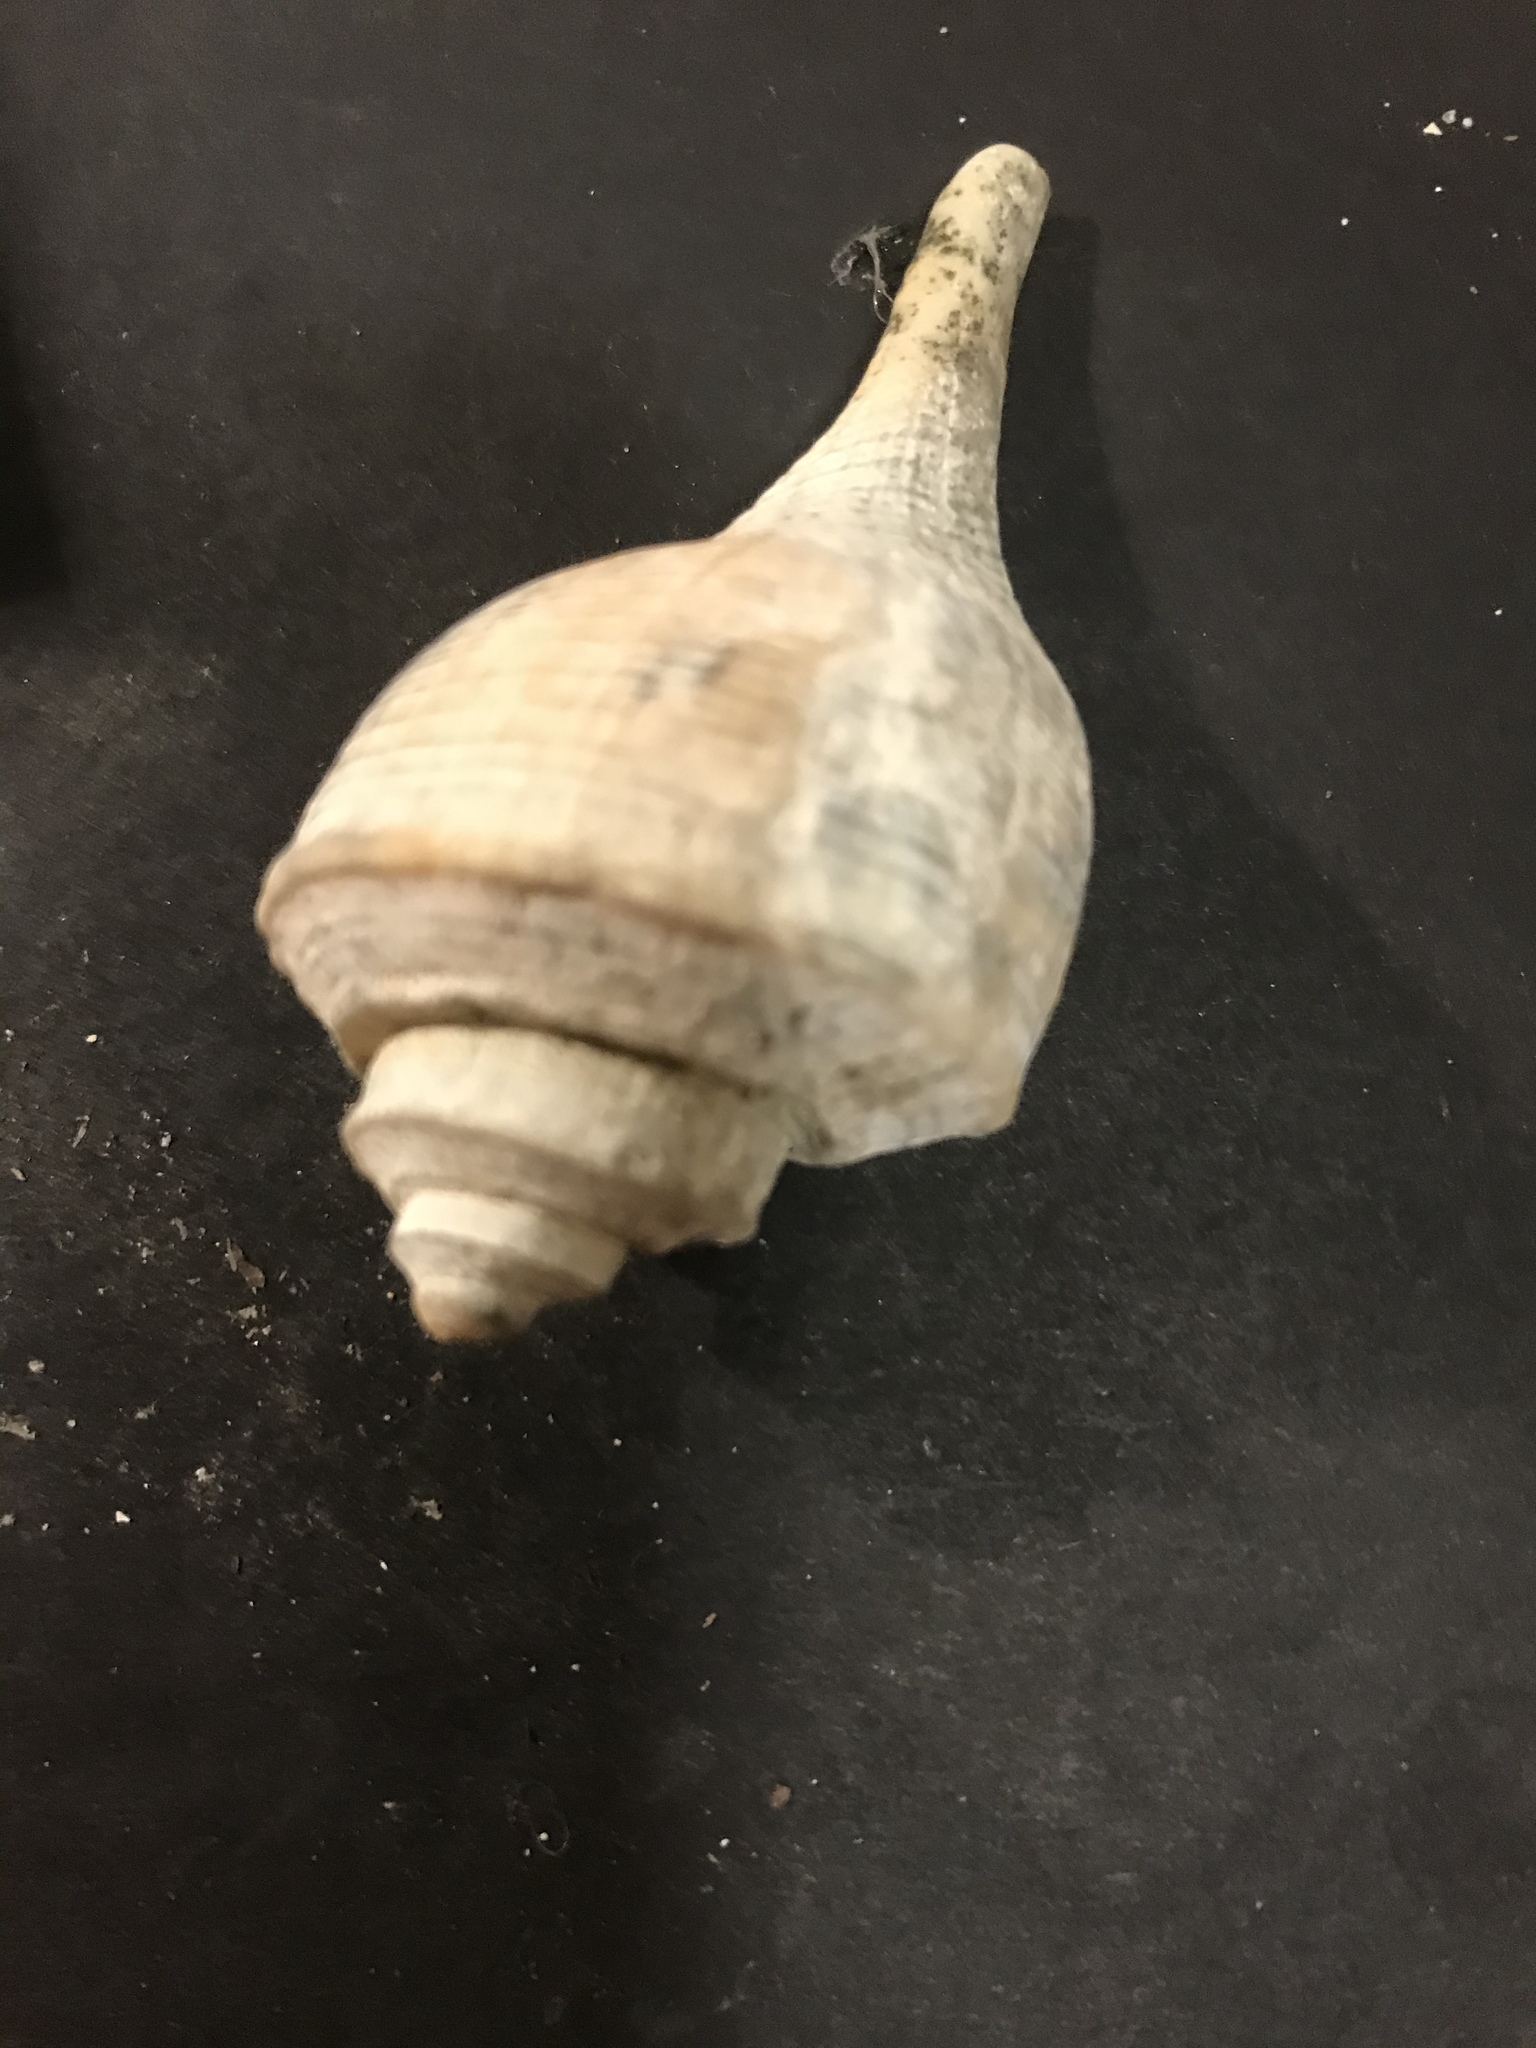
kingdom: Animalia
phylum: Mollusca
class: Gastropoda
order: Neogastropoda
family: Busyconidae
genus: Busycotypus
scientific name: Busycotypus canaliculatus
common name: Channeled whelk
